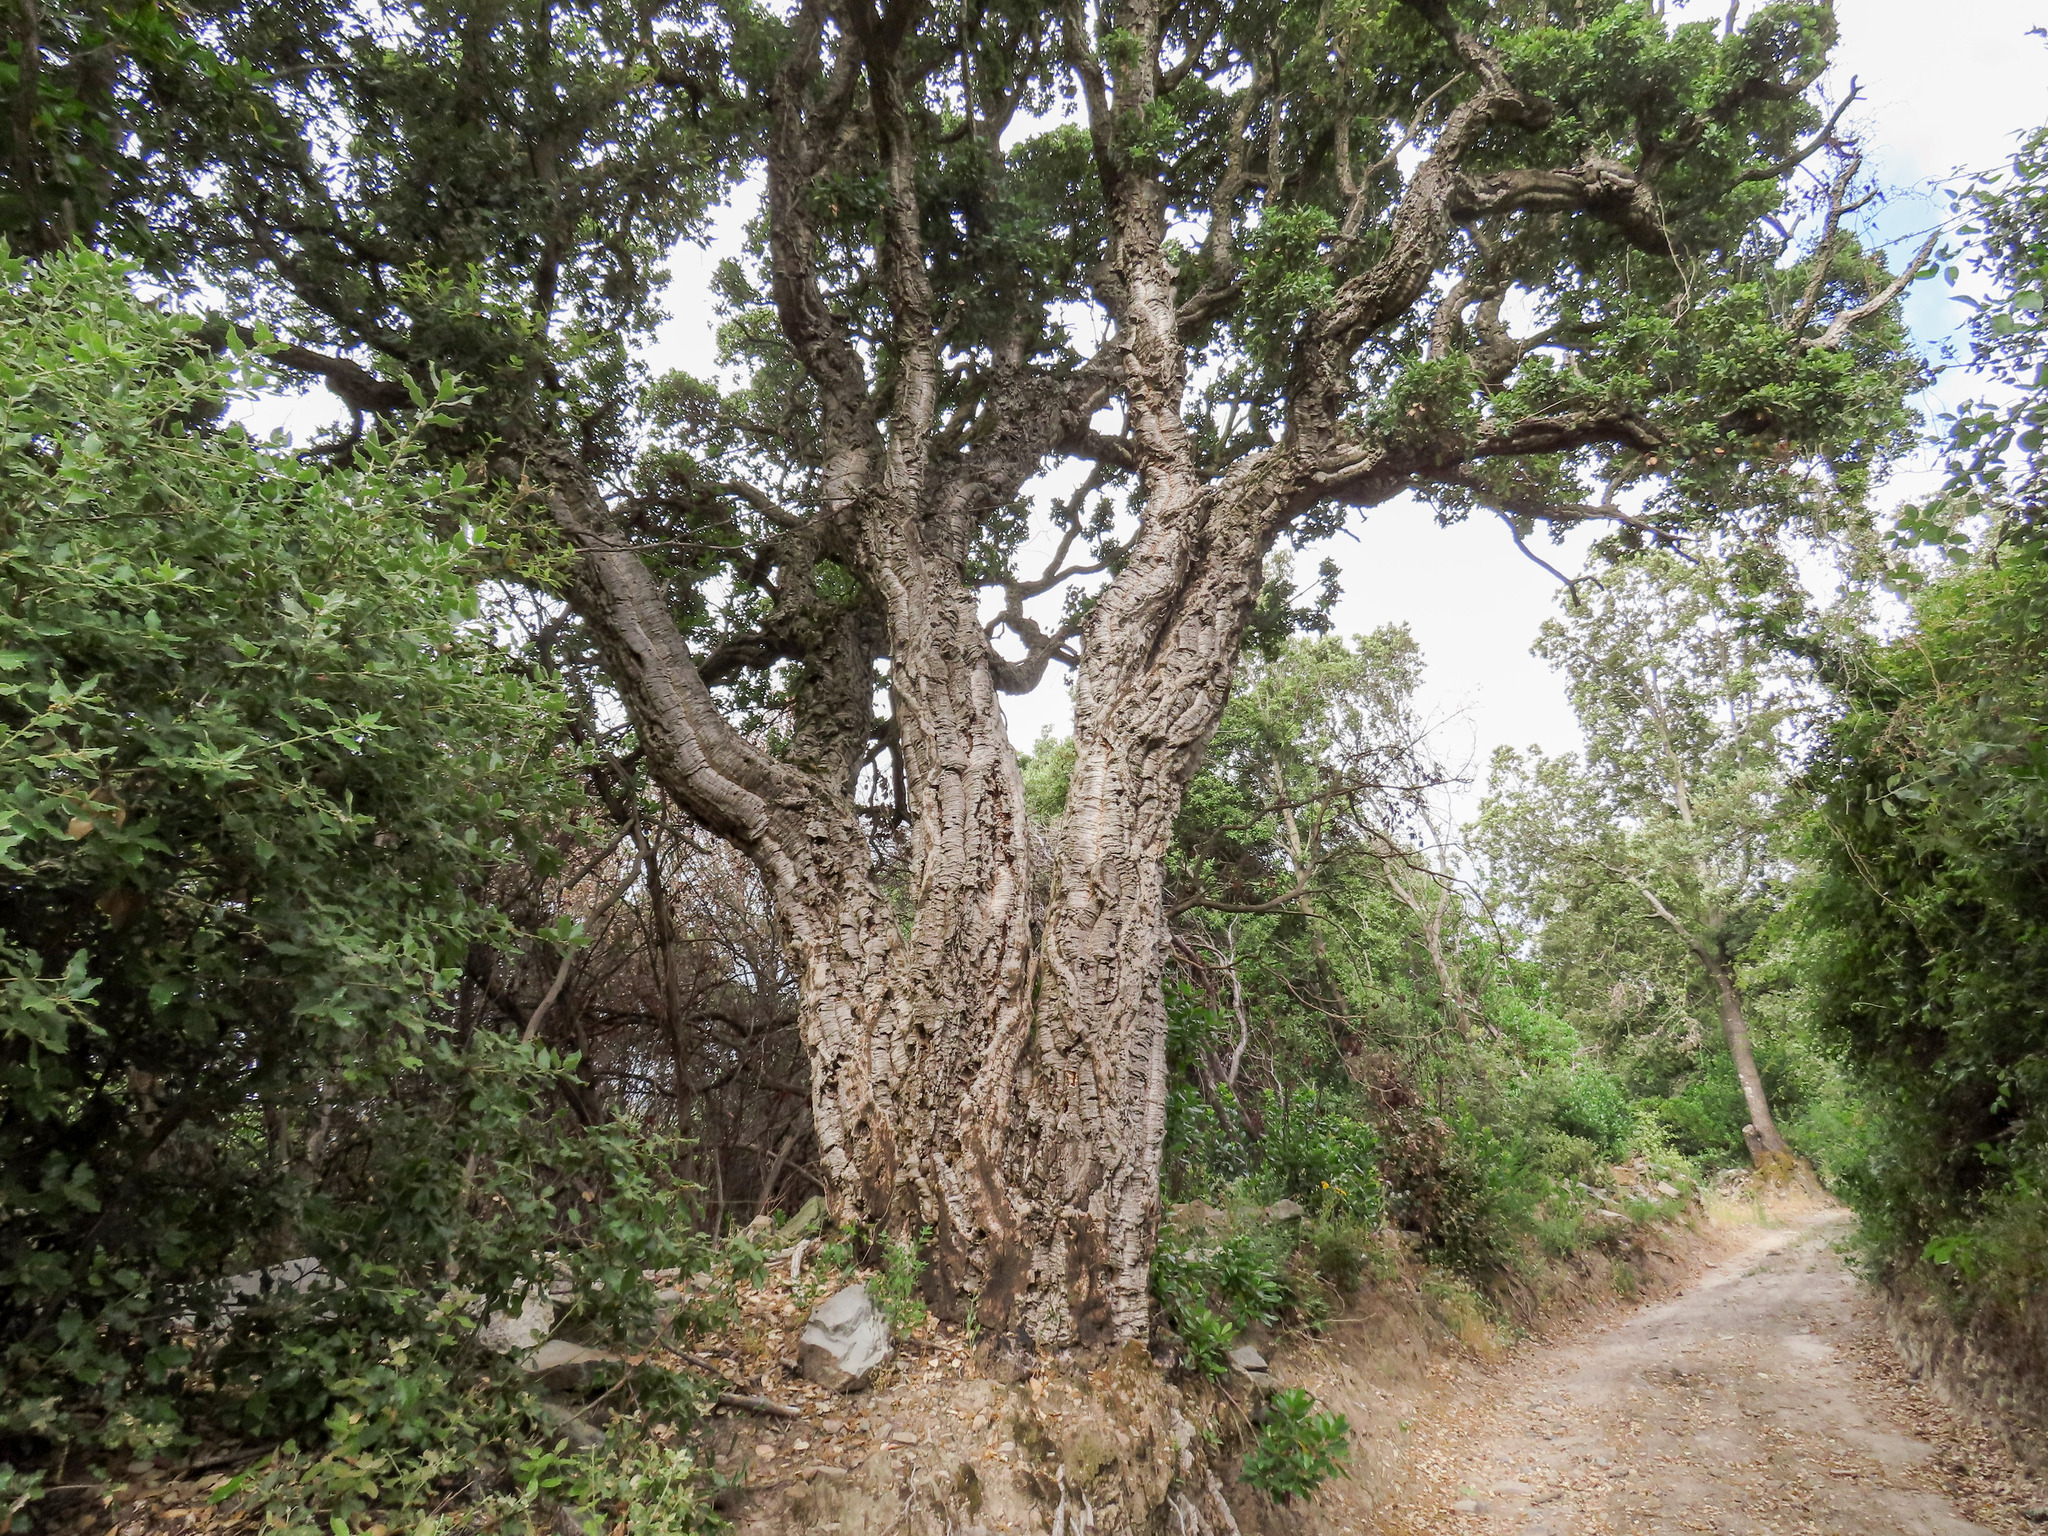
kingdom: Plantae
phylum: Tracheophyta
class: Magnoliopsida
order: Fagales
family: Fagaceae
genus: Quercus
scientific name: Quercus suber
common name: Cork oak
